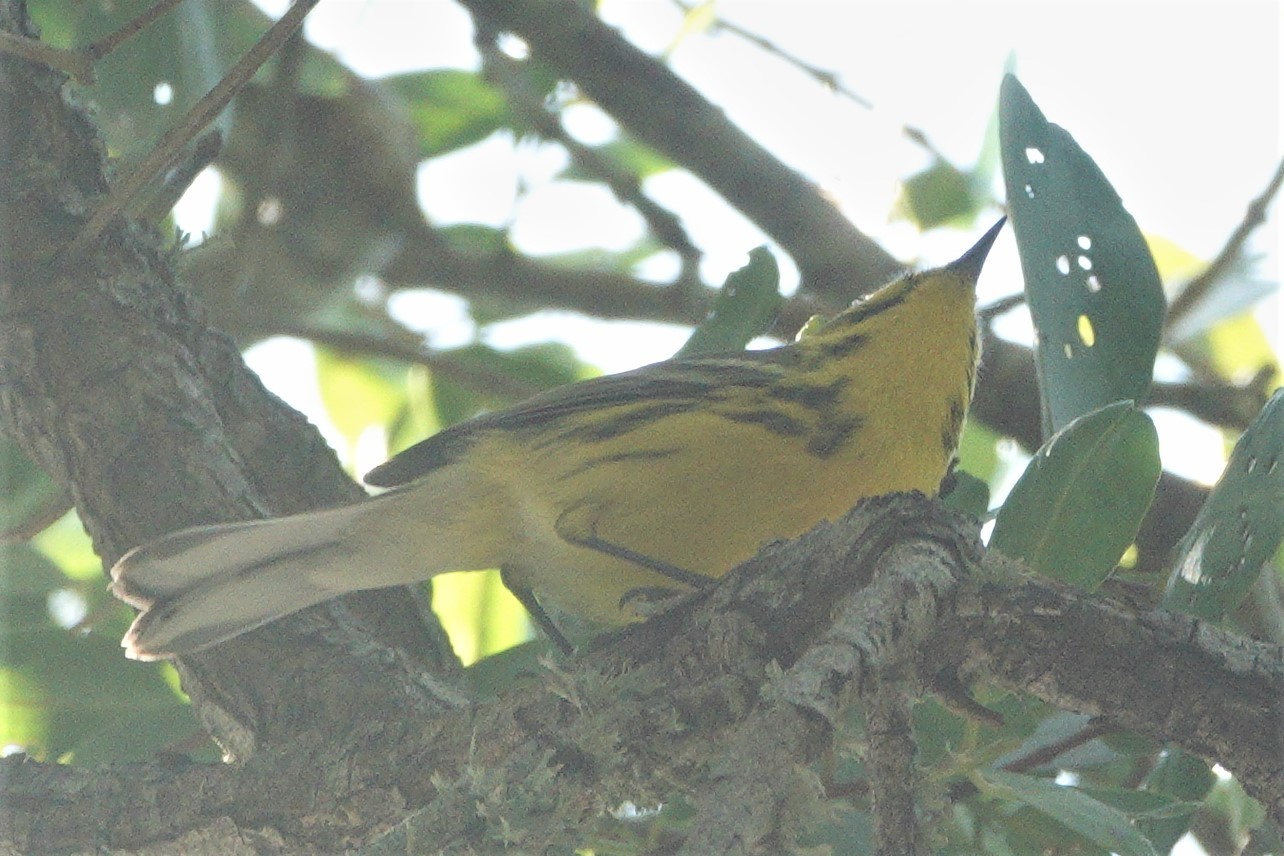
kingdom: Animalia
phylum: Chordata
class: Aves
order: Passeriformes
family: Parulidae
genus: Setophaga
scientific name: Setophaga discolor
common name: Prairie warbler
